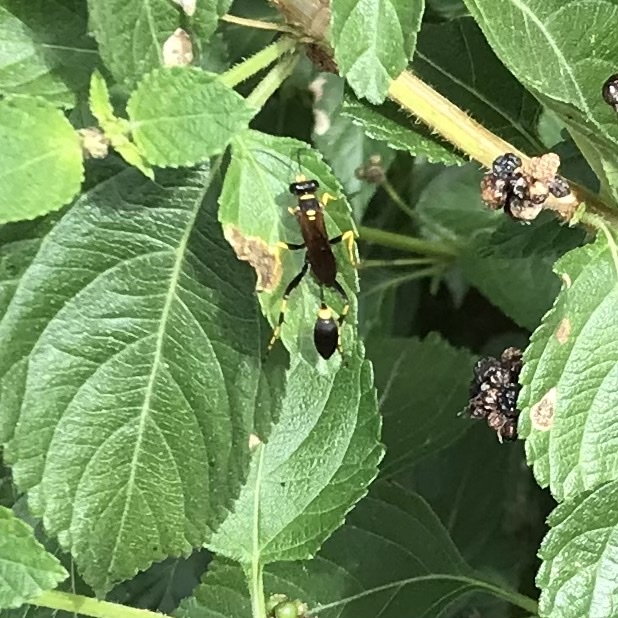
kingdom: Animalia
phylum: Arthropoda
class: Insecta
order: Hymenoptera
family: Sphecidae
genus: Sceliphron
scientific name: Sceliphron caementarium
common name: Mud dauber
